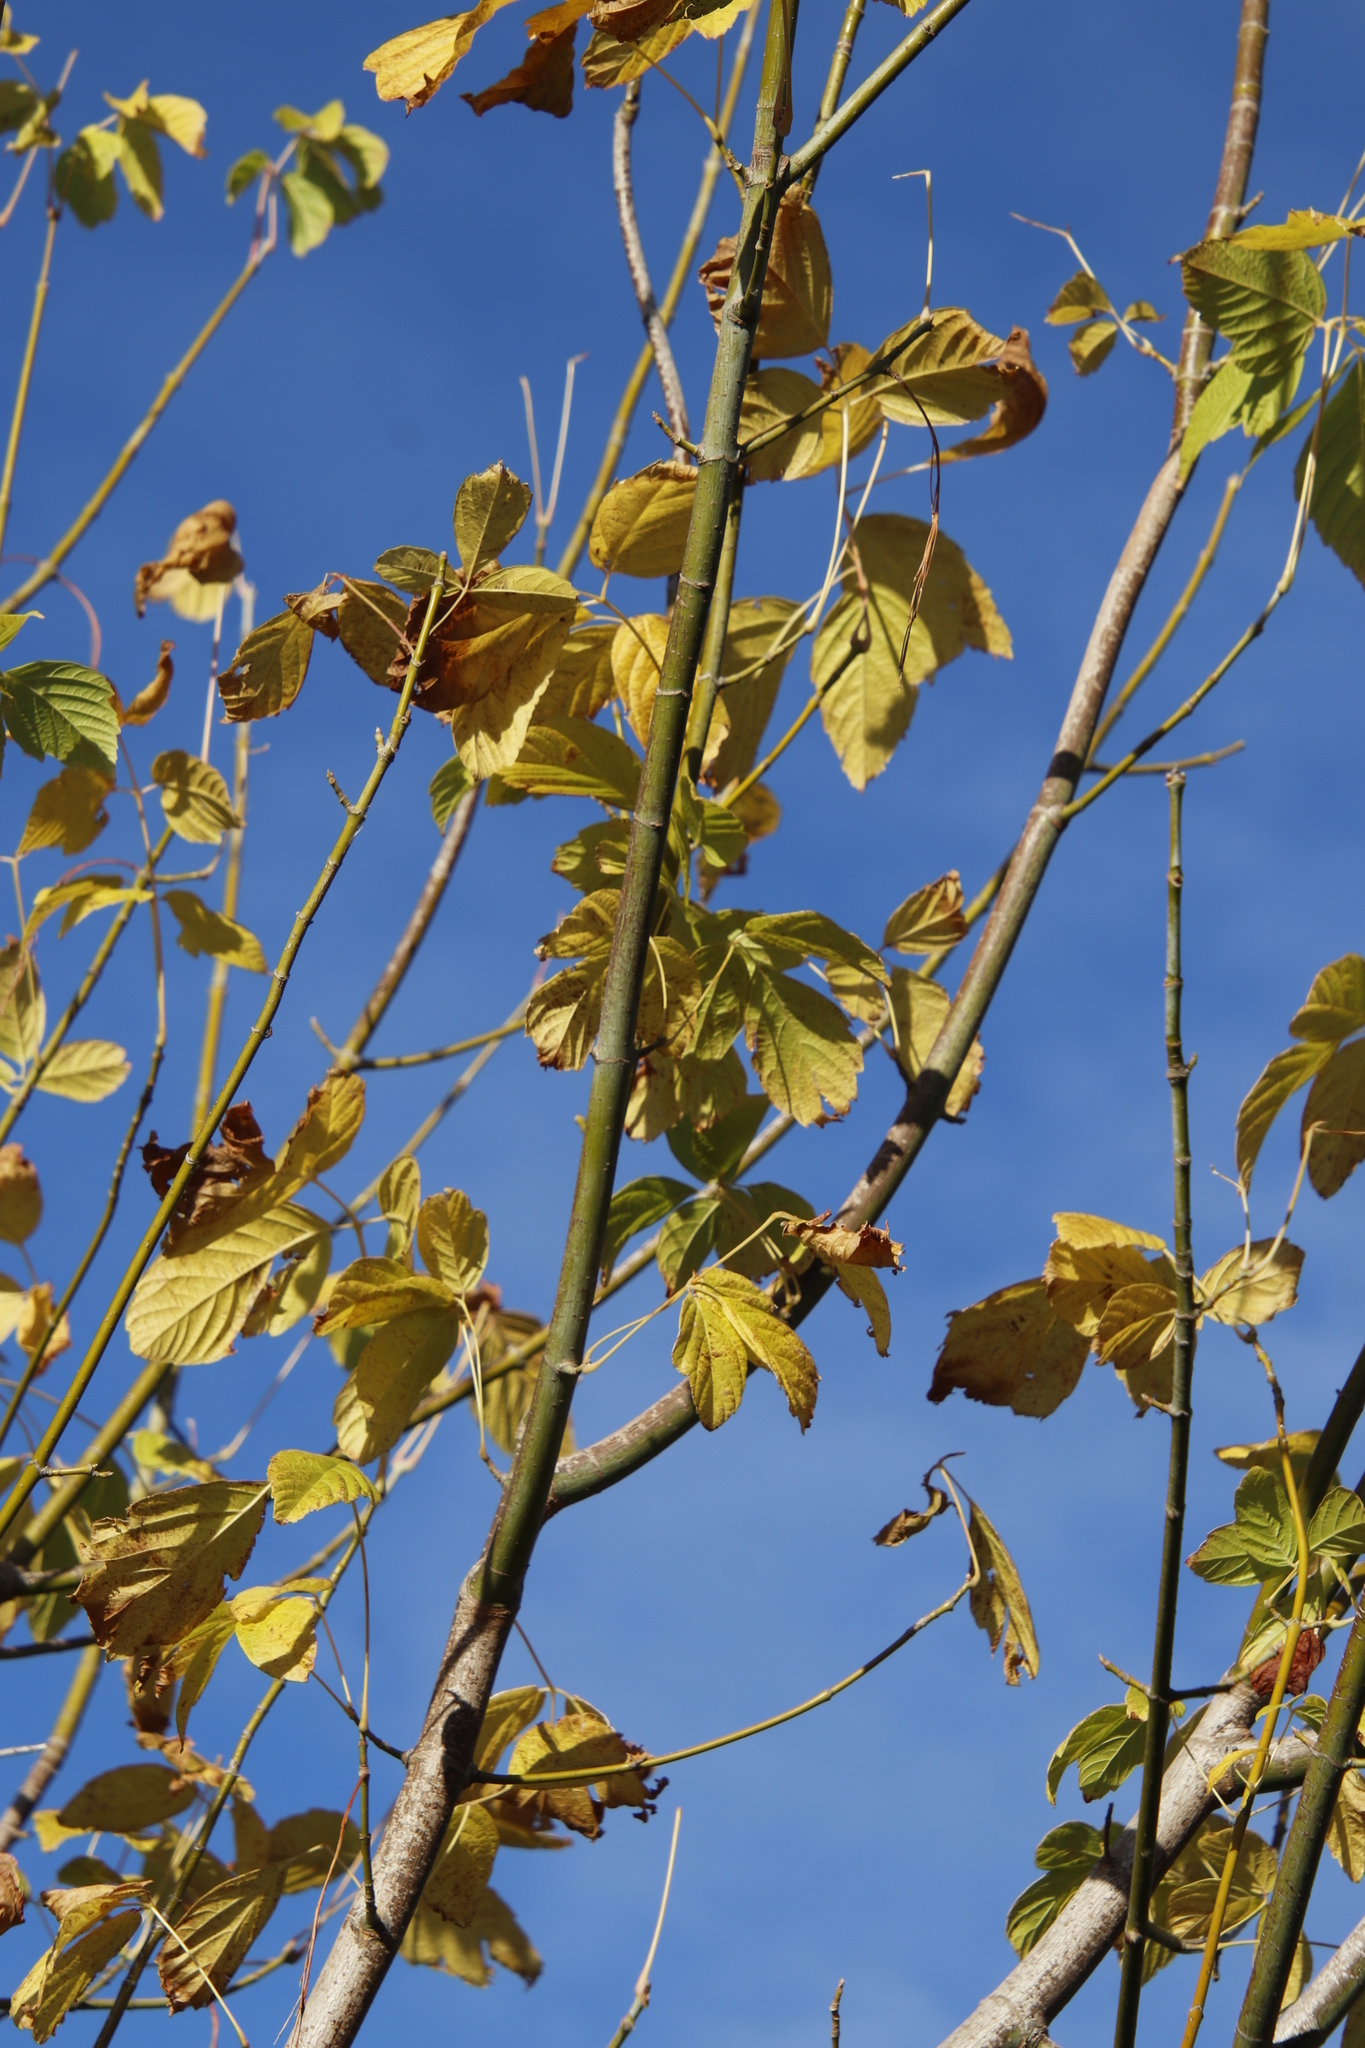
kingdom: Plantae
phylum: Tracheophyta
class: Magnoliopsida
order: Sapindales
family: Sapindaceae
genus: Acer
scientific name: Acer negundo
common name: Ashleaf maple
